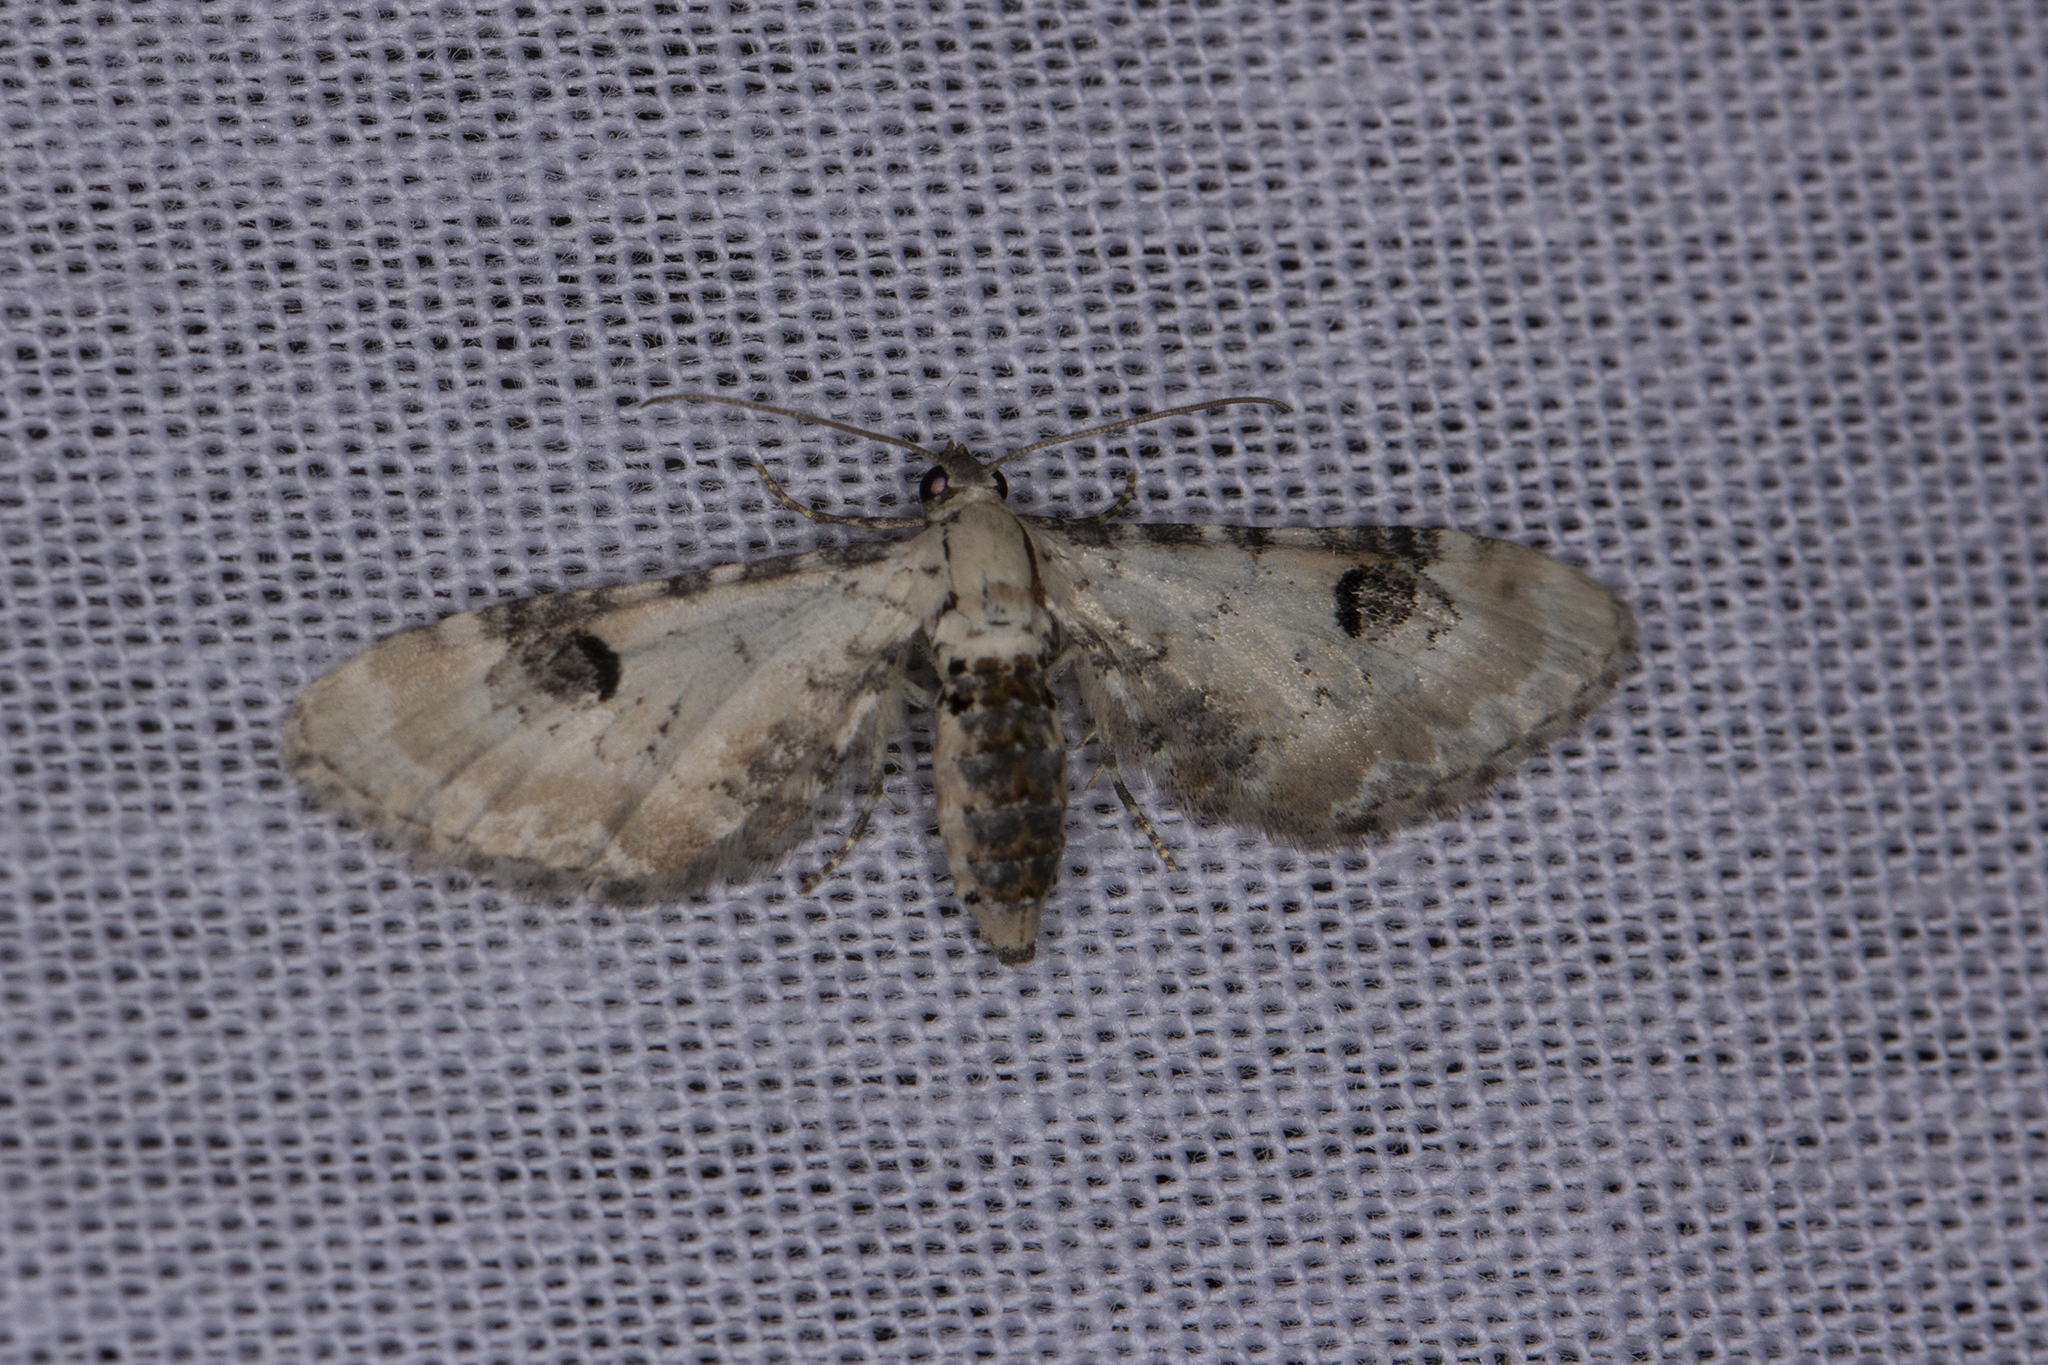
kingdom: Animalia
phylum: Arthropoda
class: Insecta
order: Lepidoptera
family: Geometridae
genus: Eupithecia
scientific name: Eupithecia centaureata
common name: Lime-speck pug
